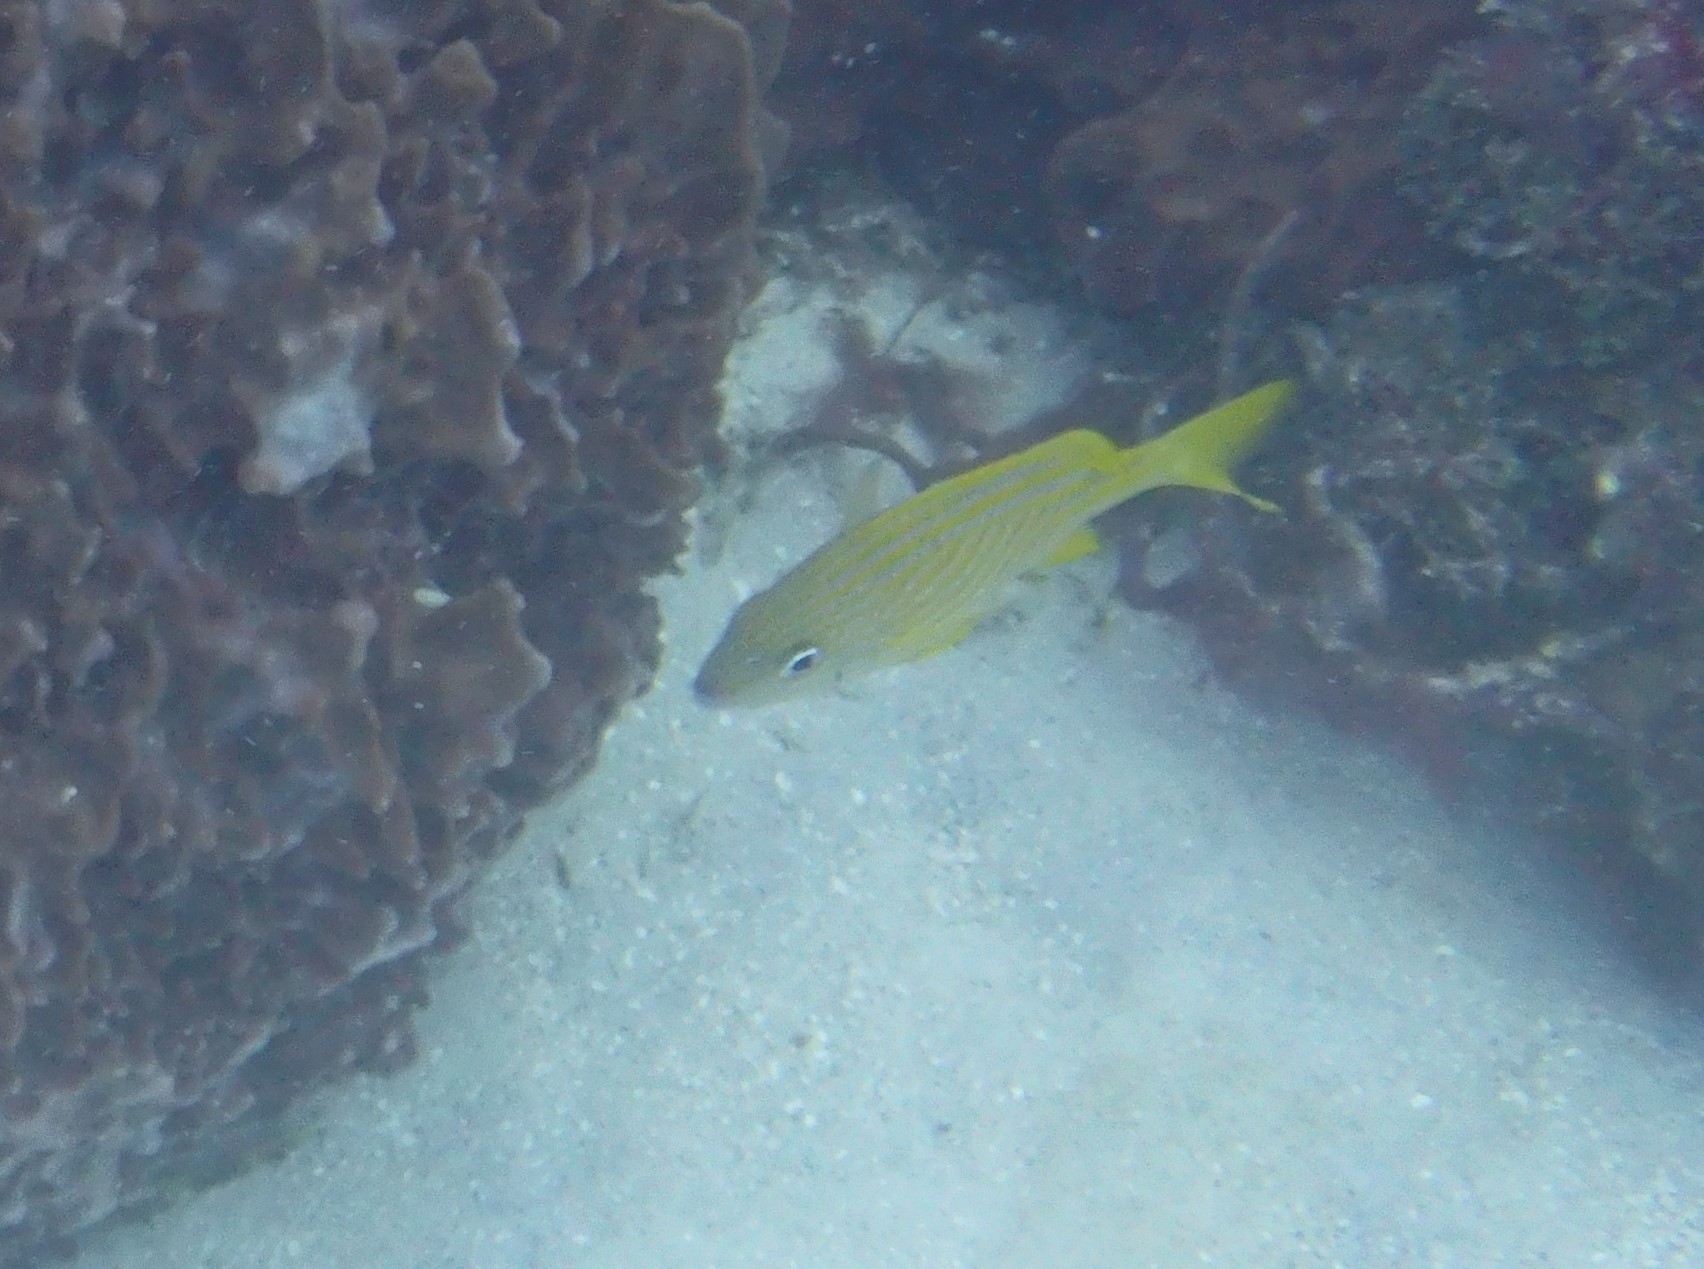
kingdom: Animalia
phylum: Chordata
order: Perciformes
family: Haemulidae
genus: Haemulon
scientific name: Haemulon flavolineatum
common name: French grunt
